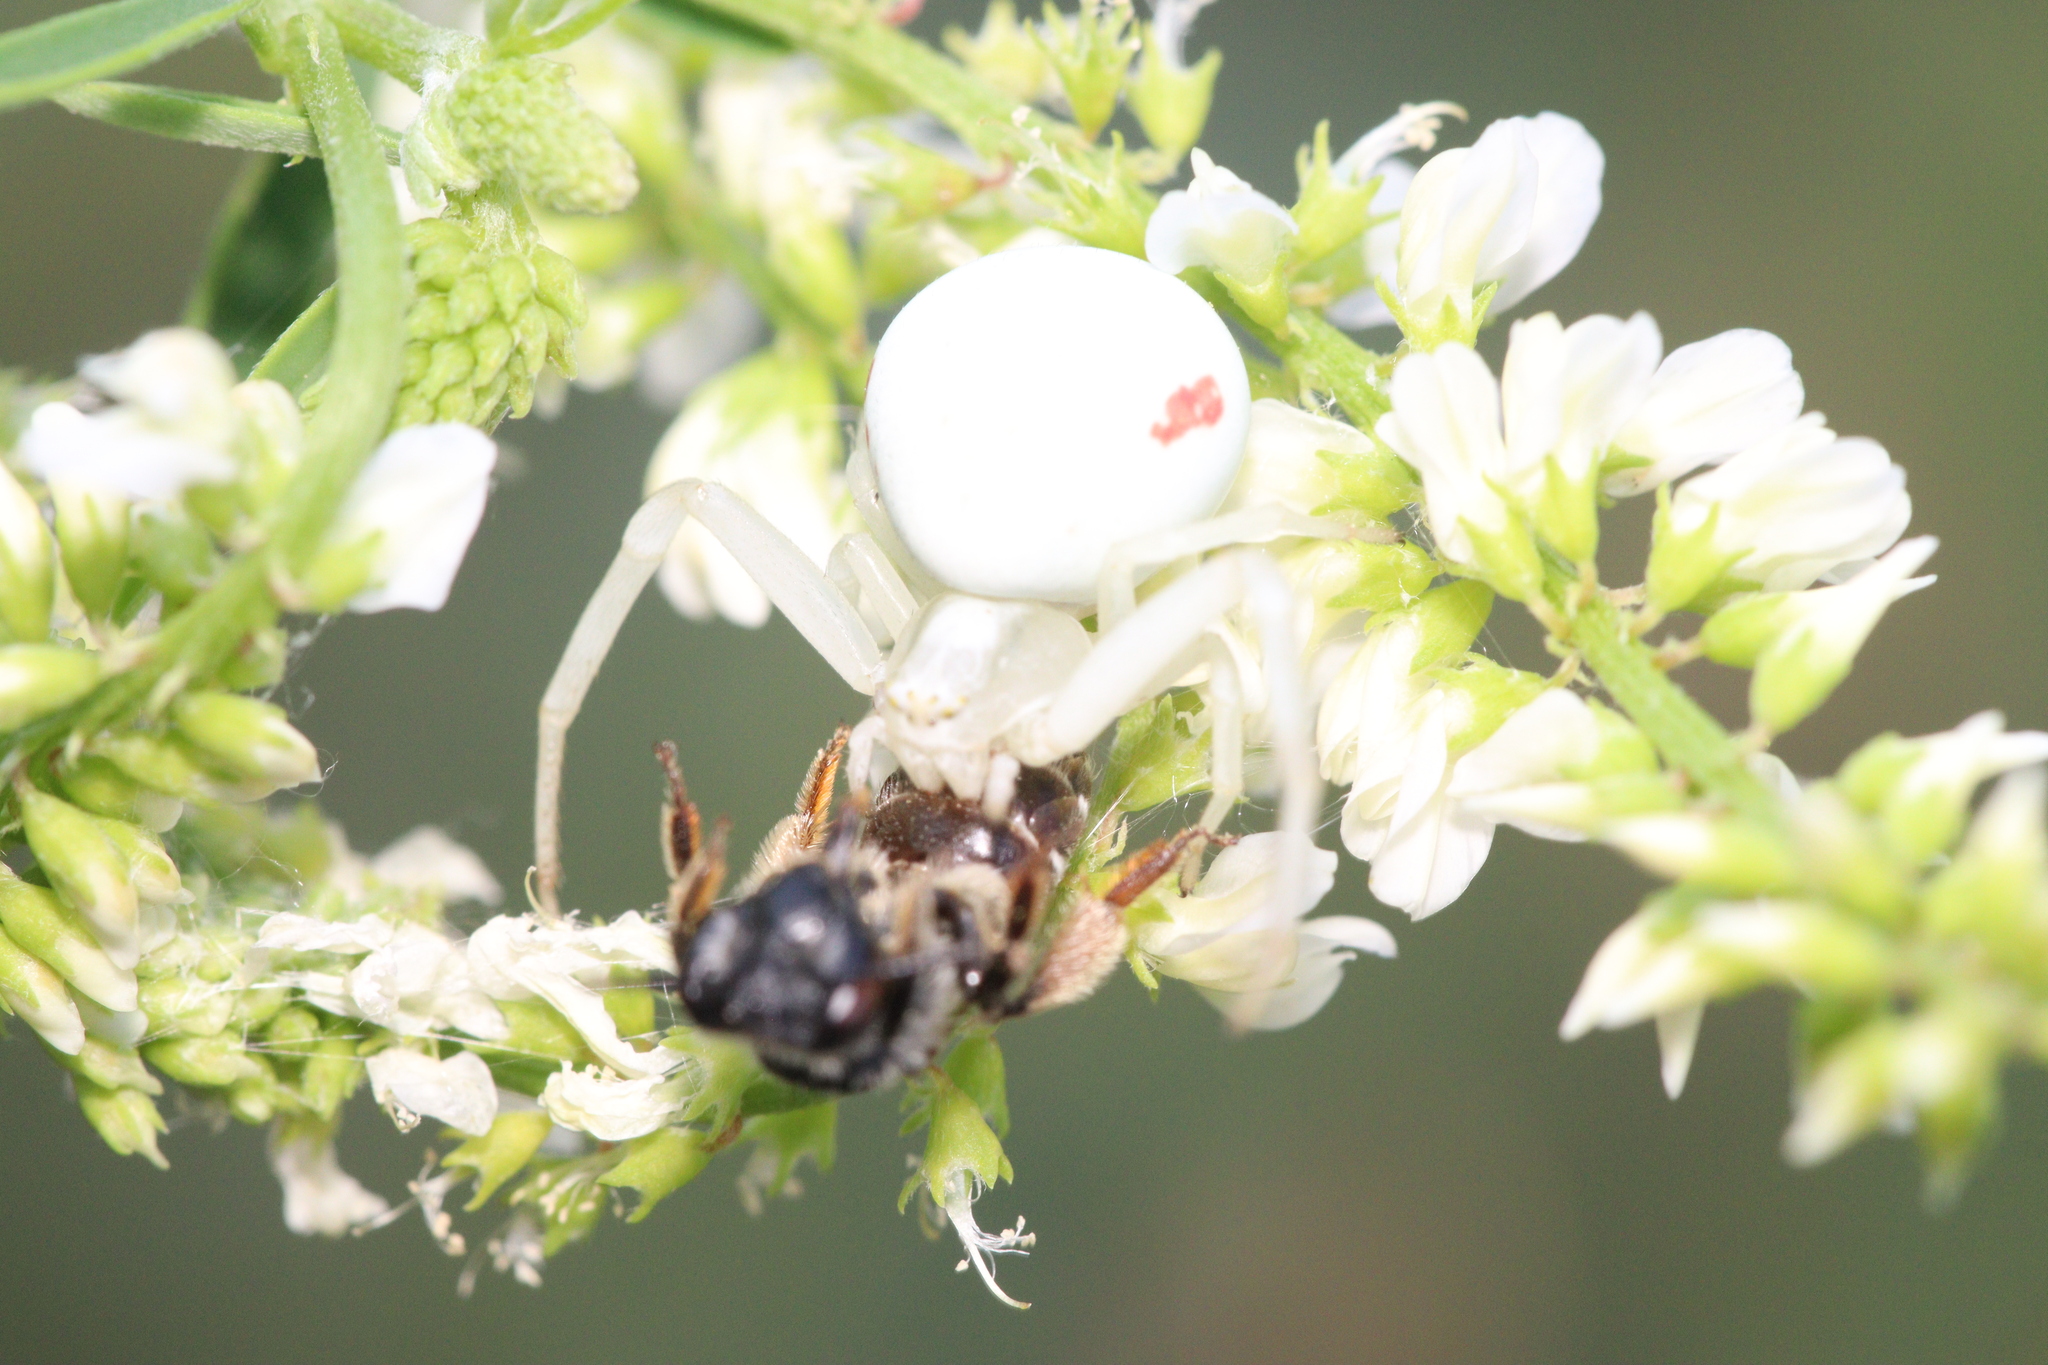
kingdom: Animalia
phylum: Arthropoda
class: Arachnida
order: Araneae
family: Thomisidae
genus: Misumena
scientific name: Misumena vatia
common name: Goldenrod crab spider
